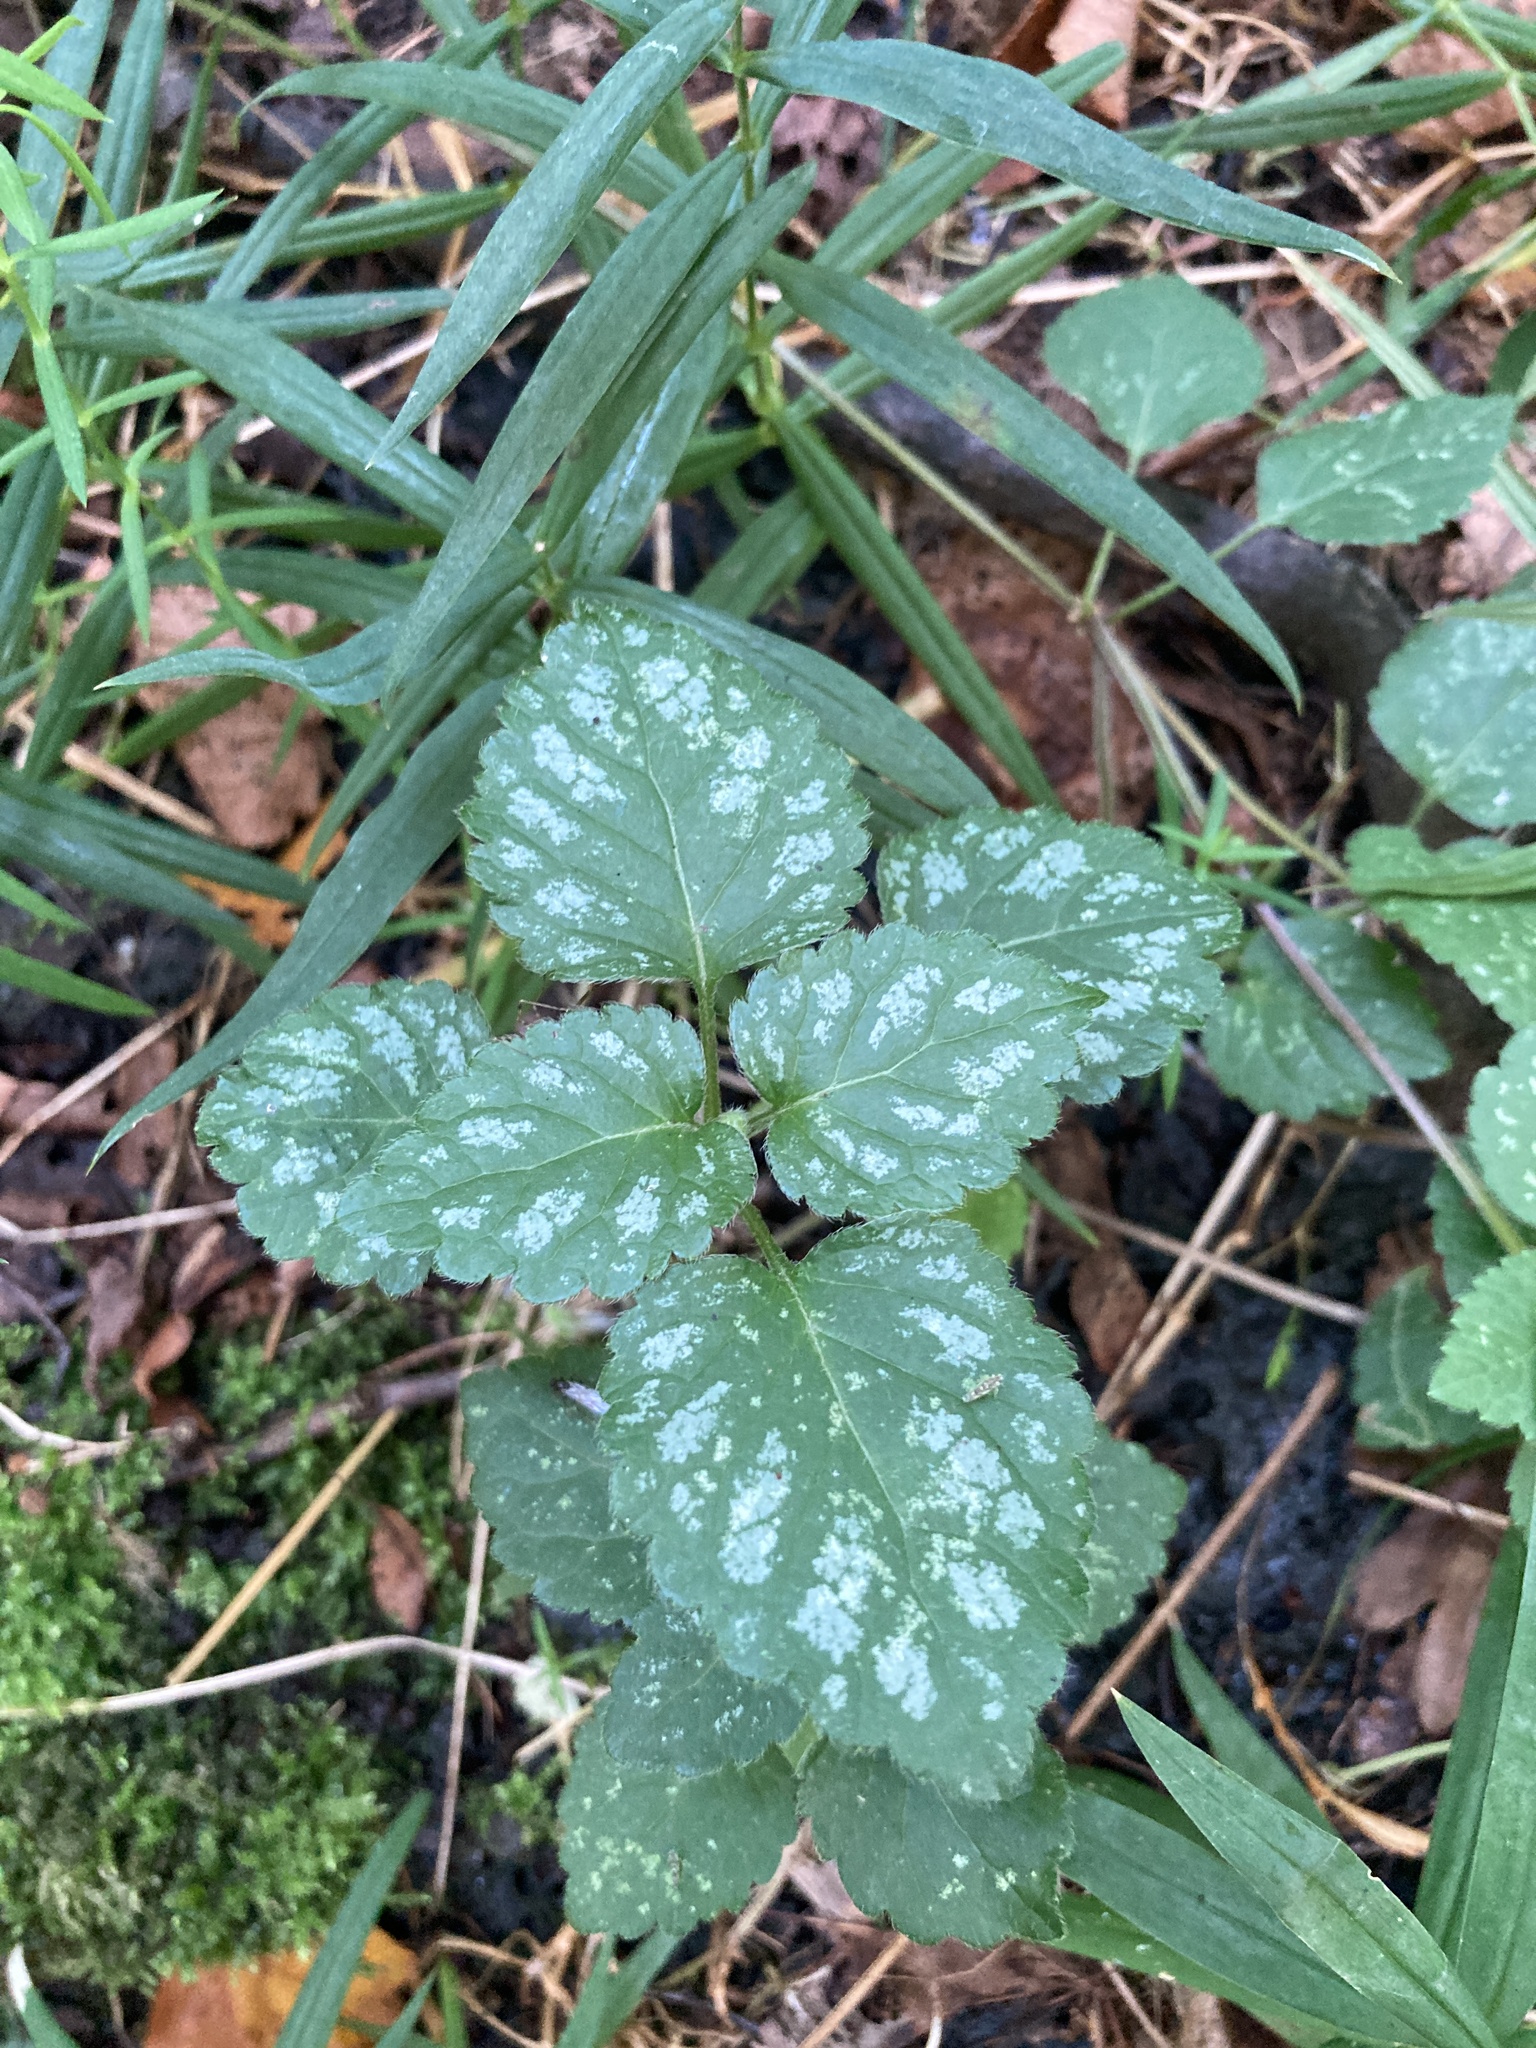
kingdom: Plantae
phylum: Tracheophyta
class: Magnoliopsida
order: Lamiales
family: Lamiaceae
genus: Lamium
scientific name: Lamium galeobdolon
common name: Yellow archangel
